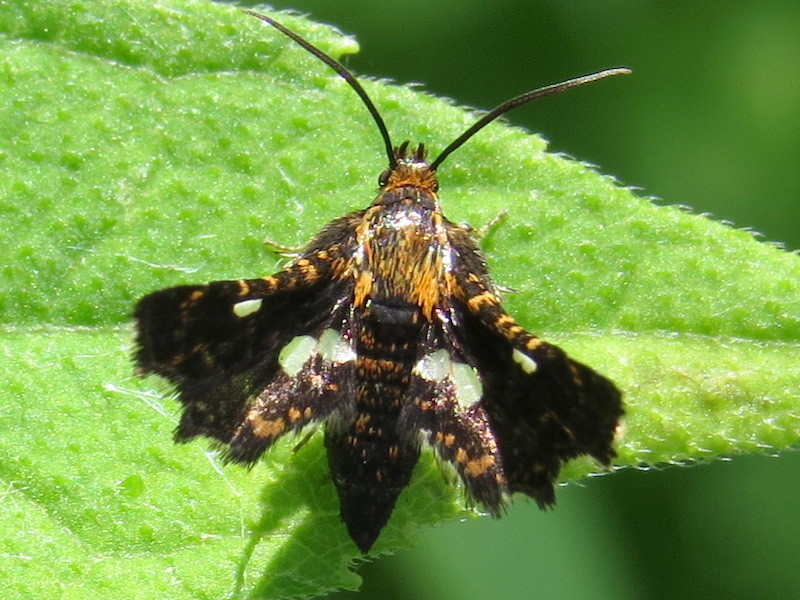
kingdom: Animalia
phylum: Arthropoda
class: Insecta
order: Lepidoptera
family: Thyrididae
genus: Thyris
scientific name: Thyris maculata
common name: Spotted thyris moth
